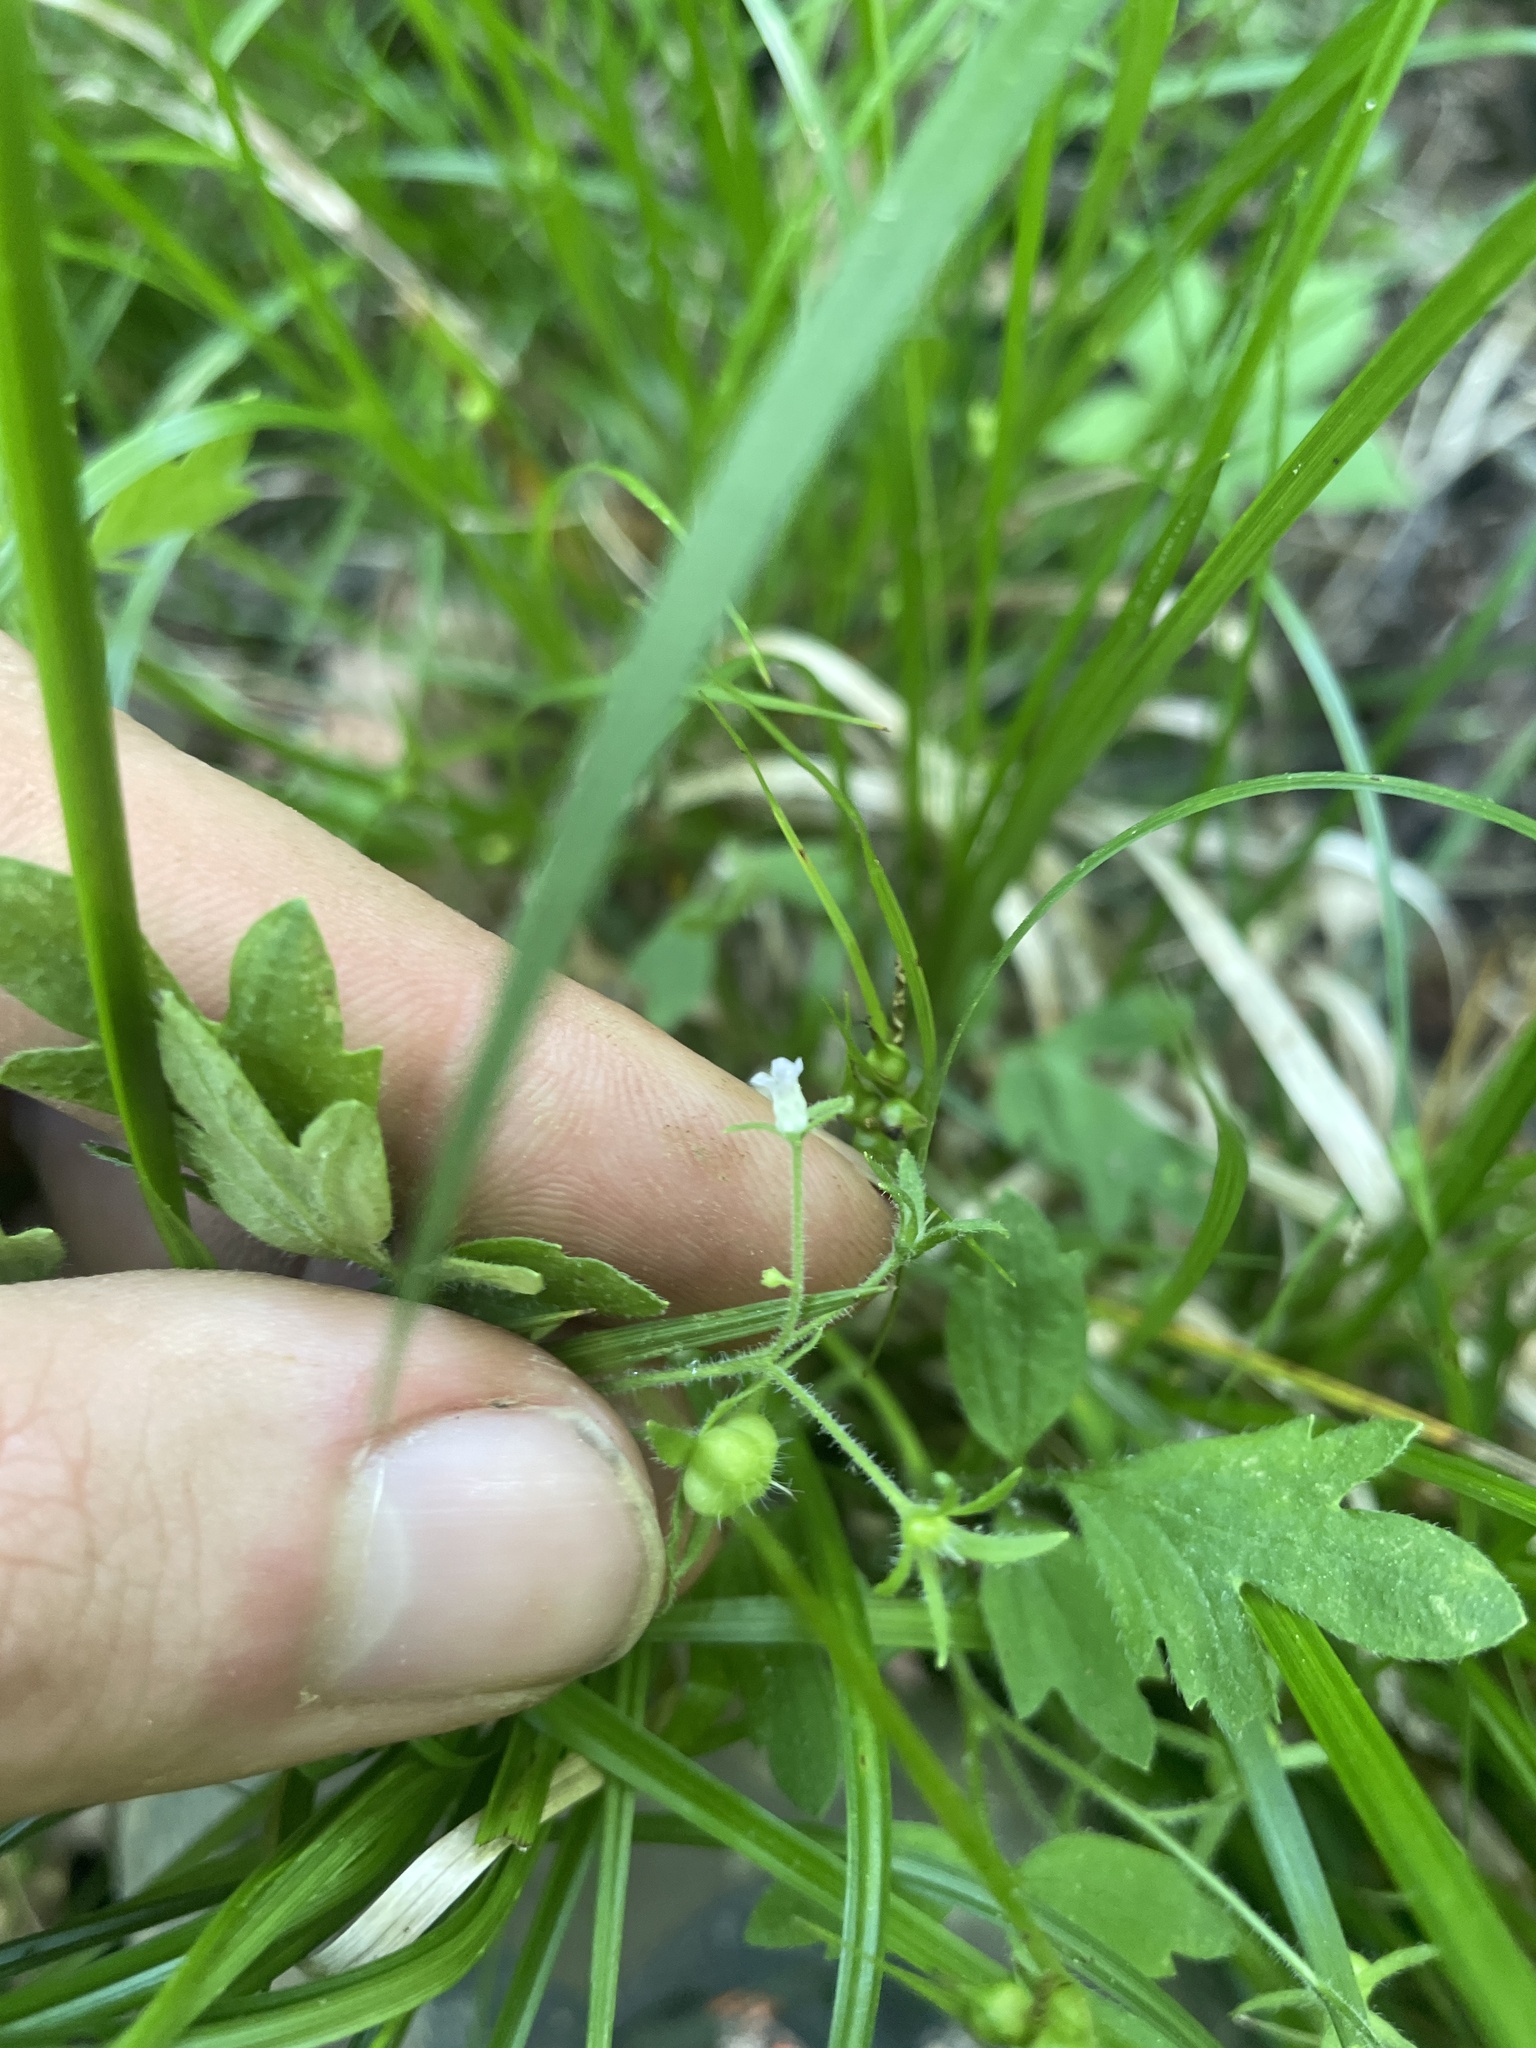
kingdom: Plantae
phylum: Tracheophyta
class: Magnoliopsida
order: Boraginales
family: Hydrophyllaceae
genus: Phacelia
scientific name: Phacelia covillei
